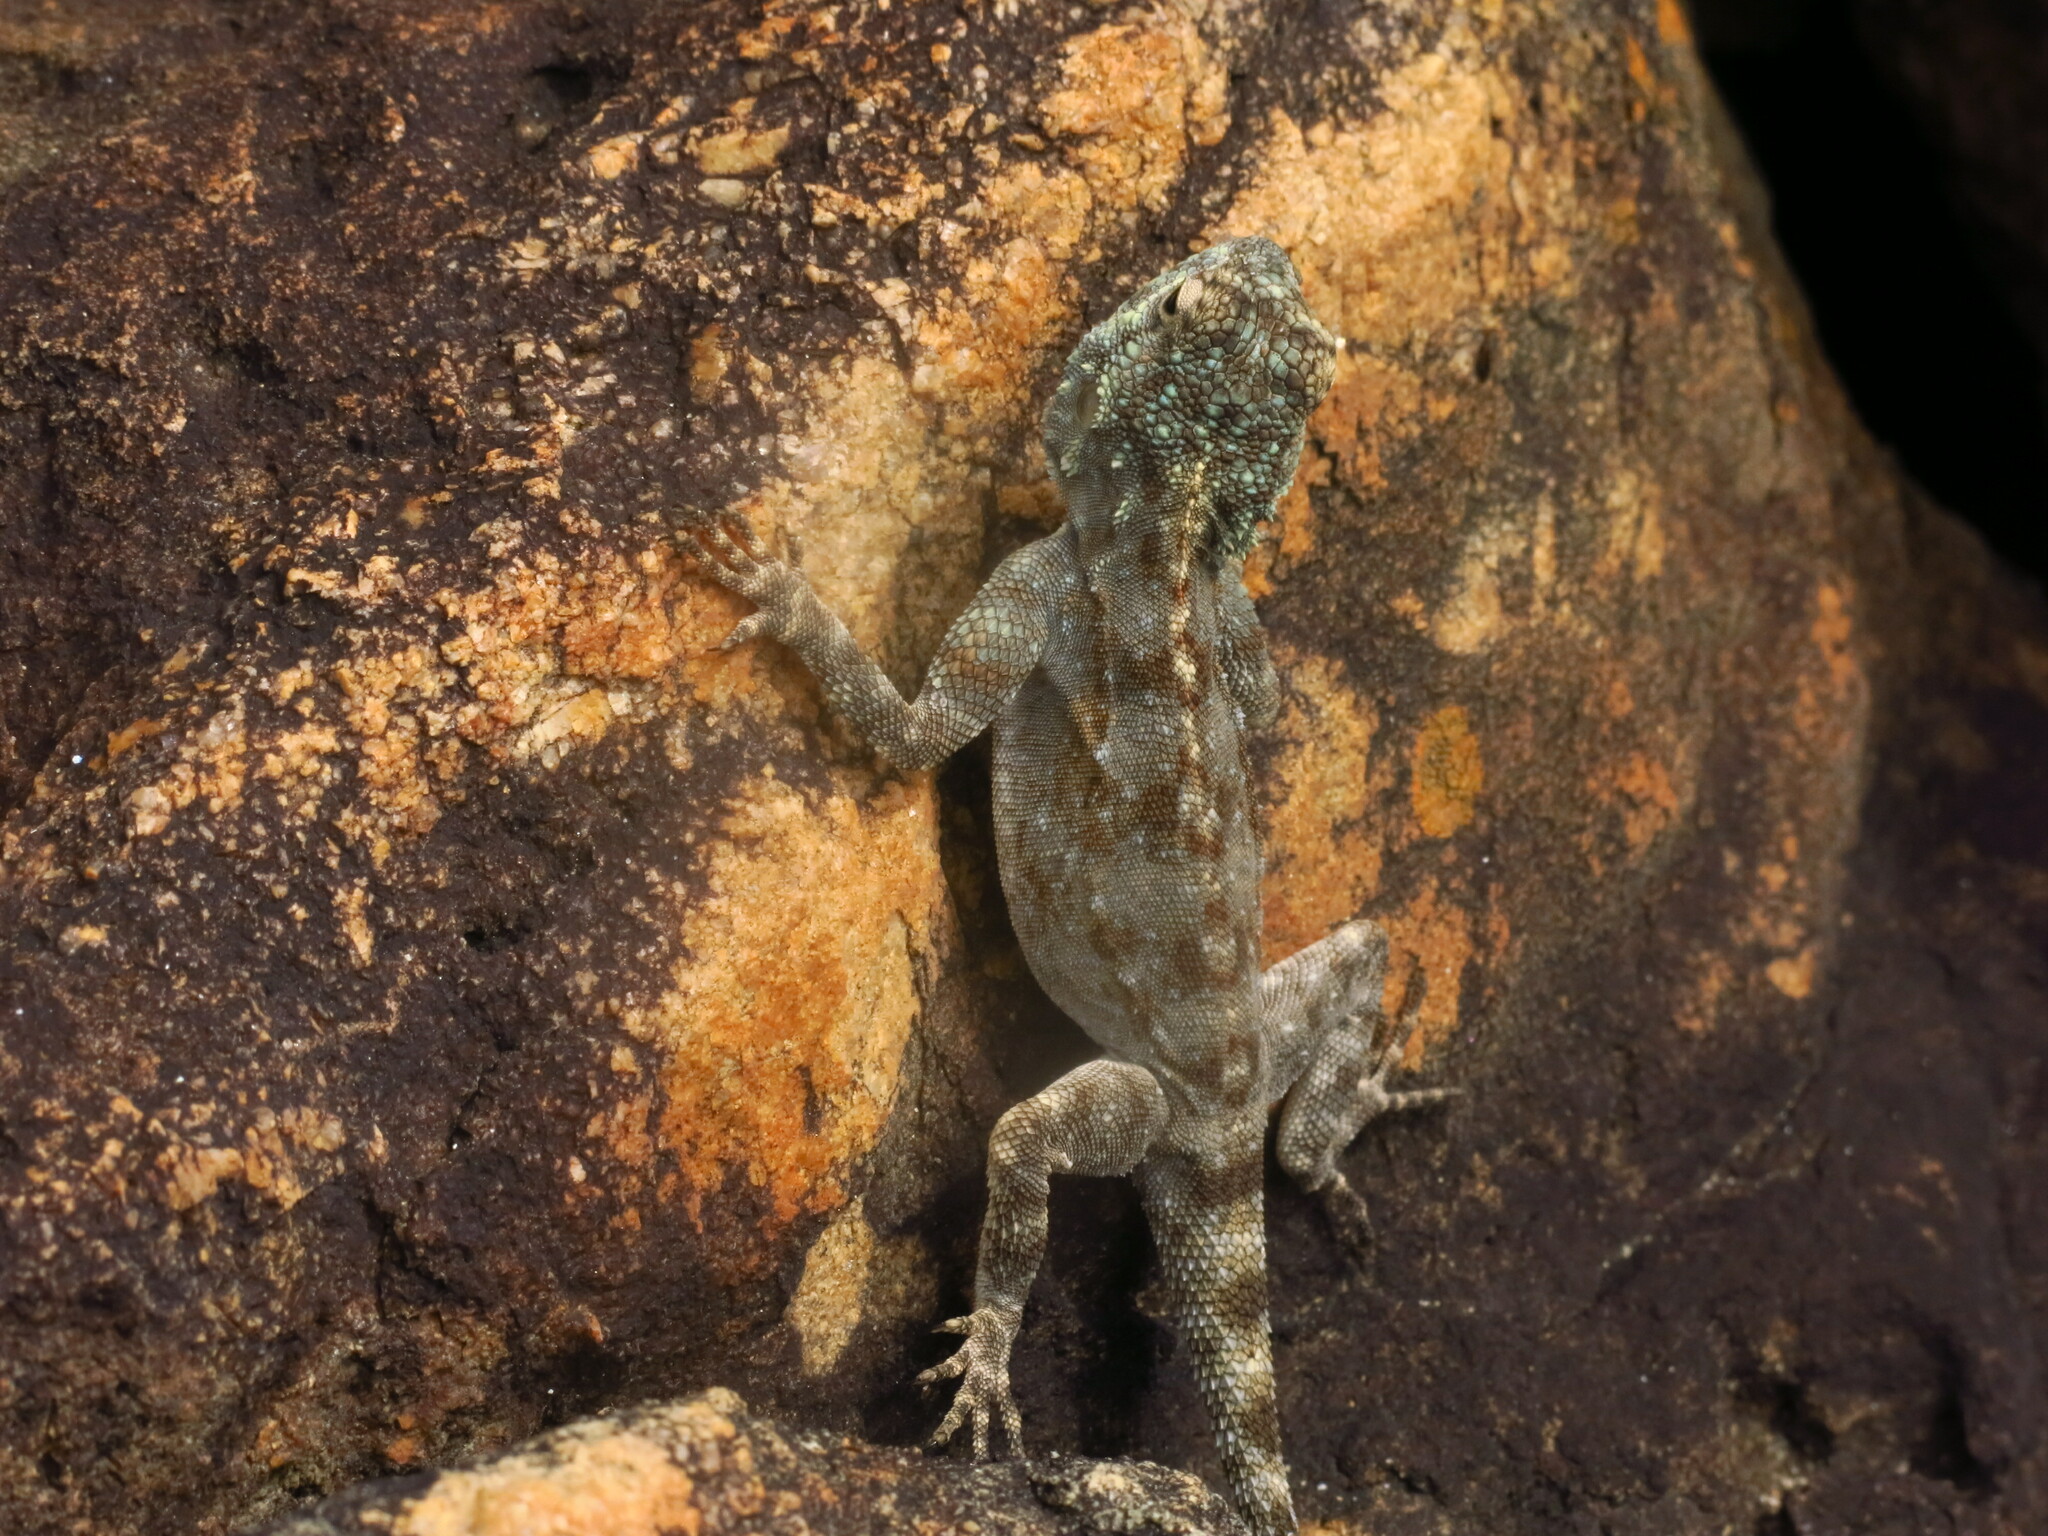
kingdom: Animalia
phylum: Chordata
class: Squamata
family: Agamidae
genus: Agama
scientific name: Agama atra
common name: Southern african rock agama
